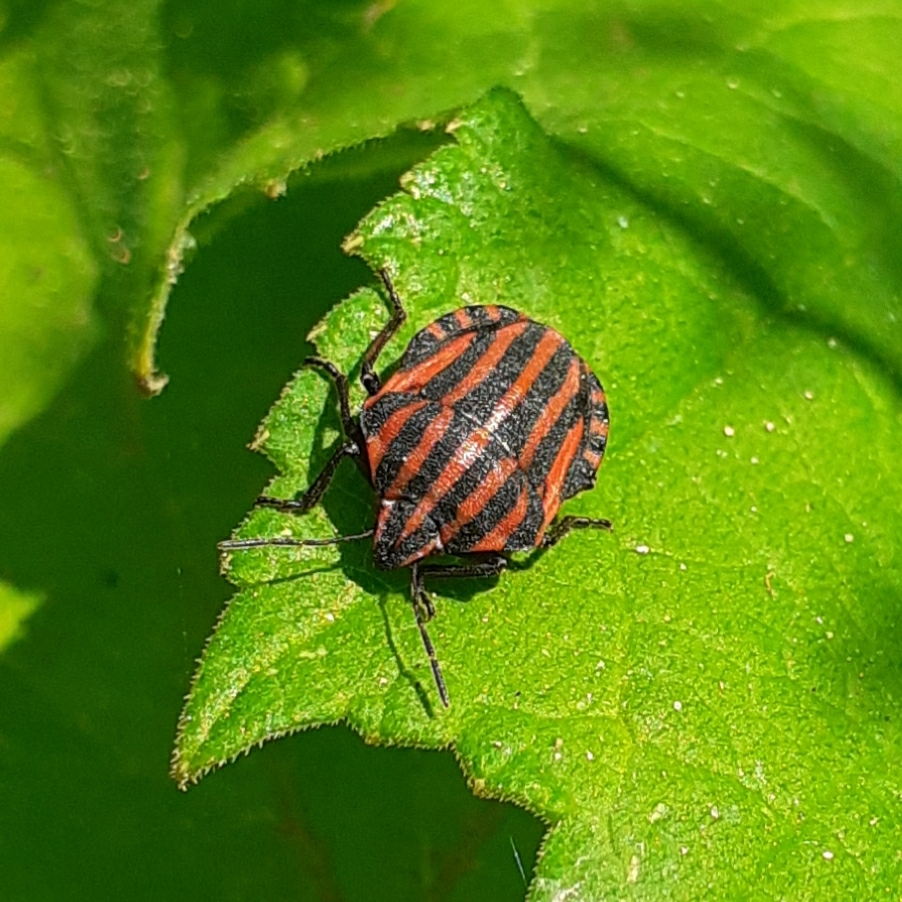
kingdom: Animalia
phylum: Arthropoda
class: Insecta
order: Hemiptera
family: Pentatomidae
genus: Graphosoma
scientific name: Graphosoma italicum
